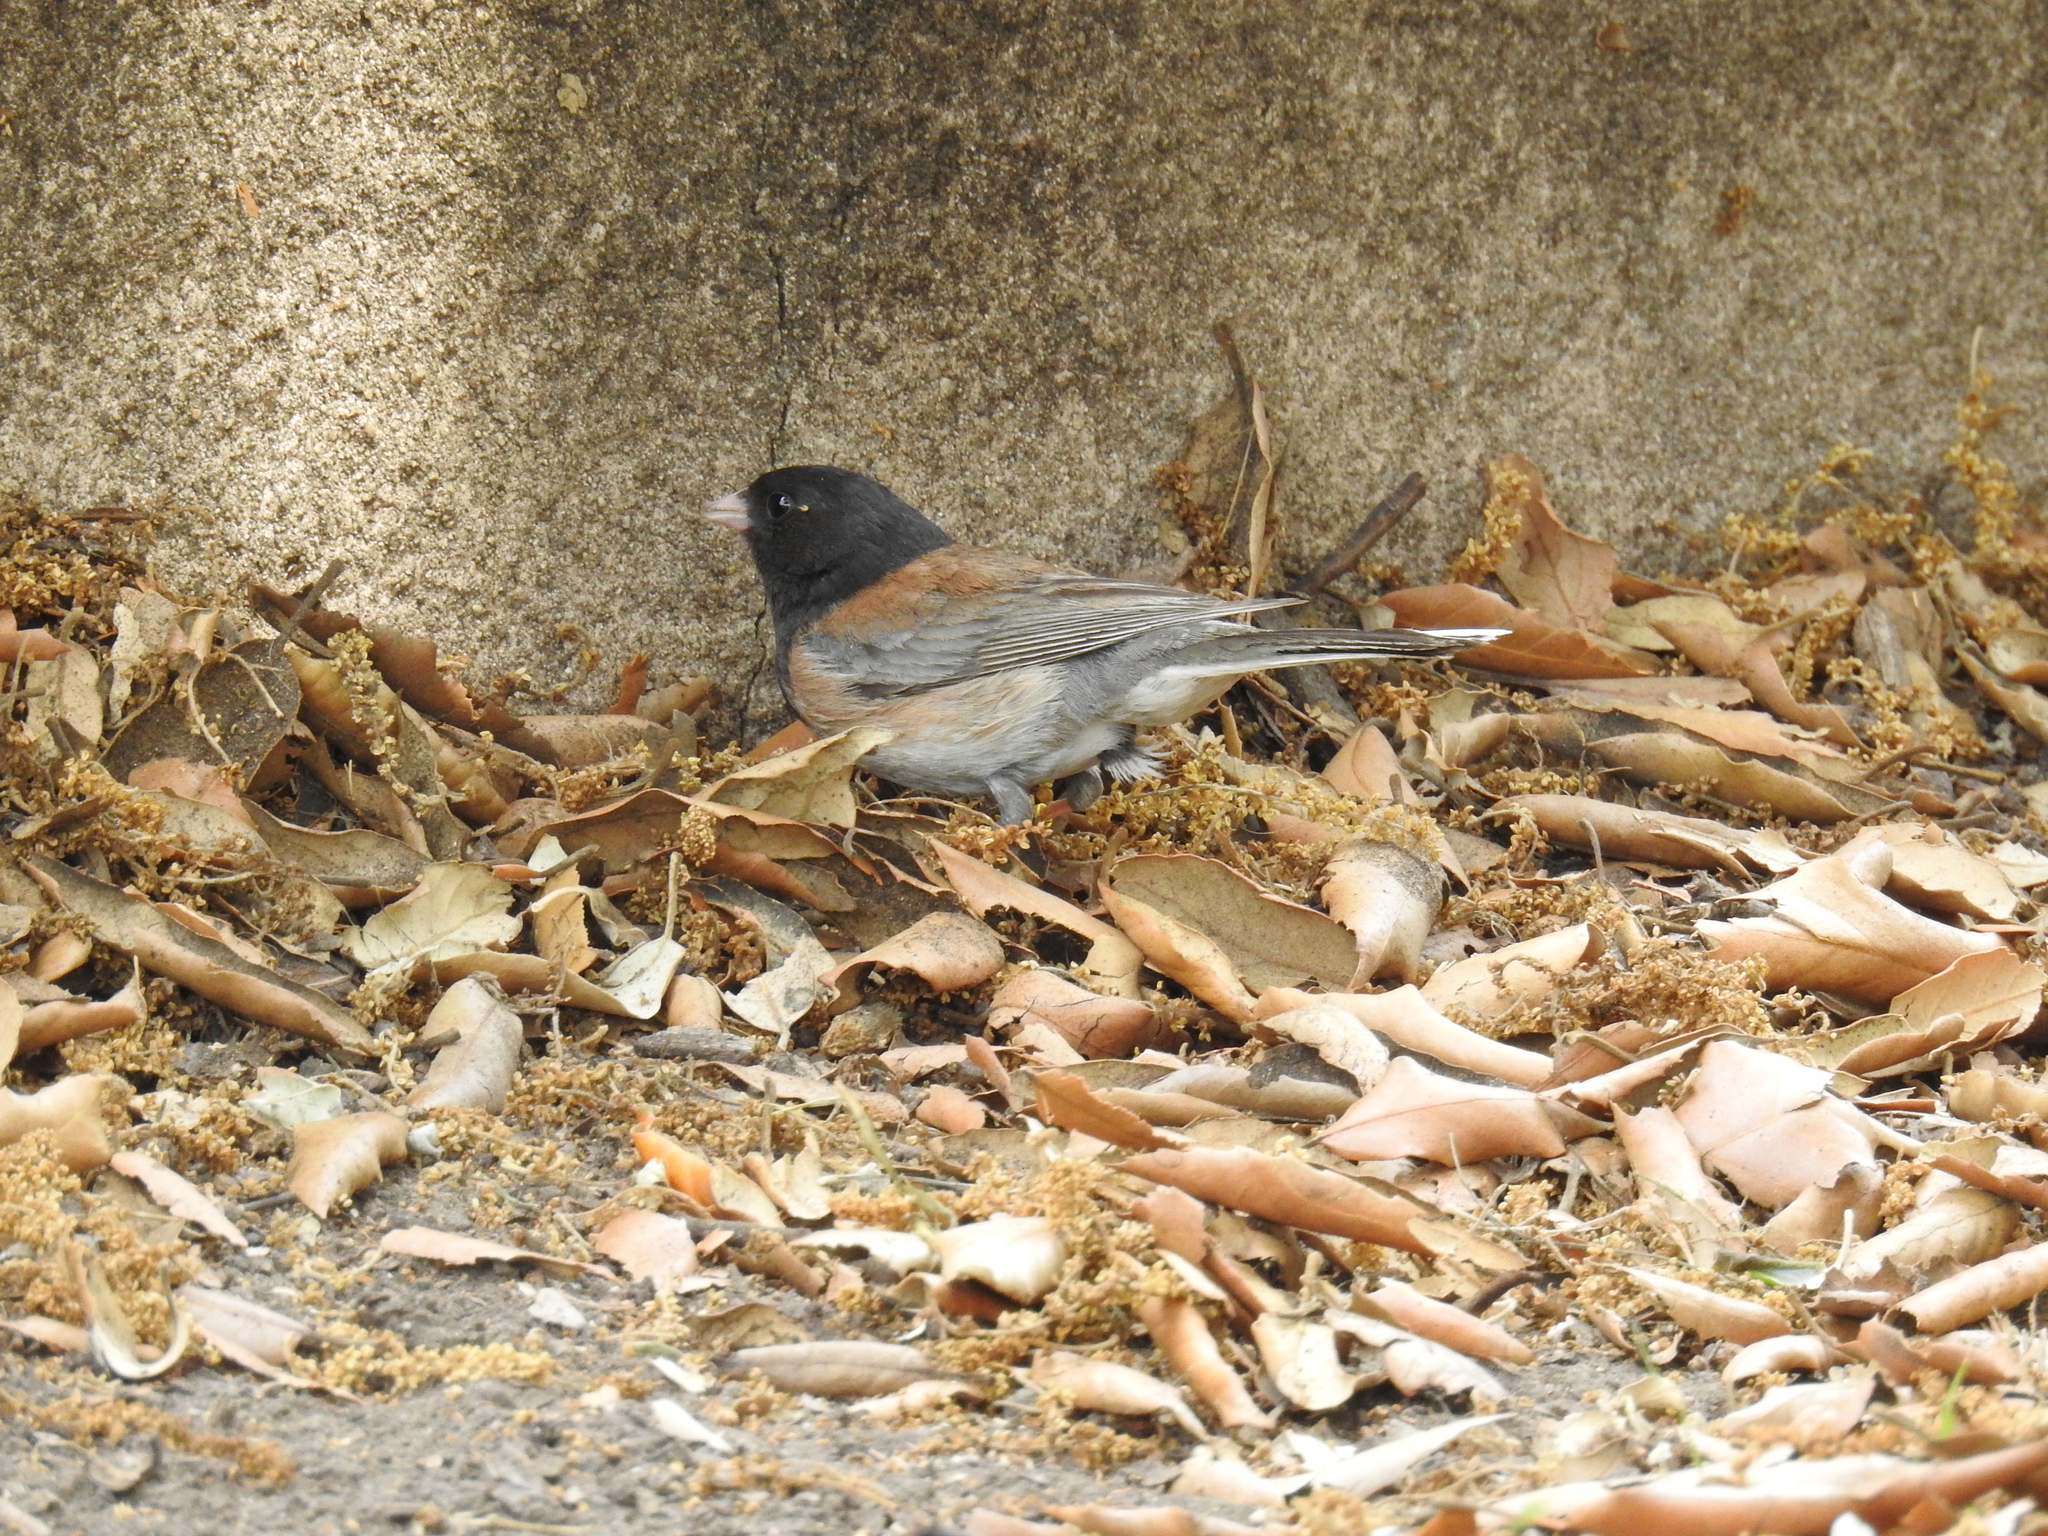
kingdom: Animalia
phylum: Chordata
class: Aves
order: Passeriformes
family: Passerellidae
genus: Junco
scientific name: Junco hyemalis
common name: Dark-eyed junco
